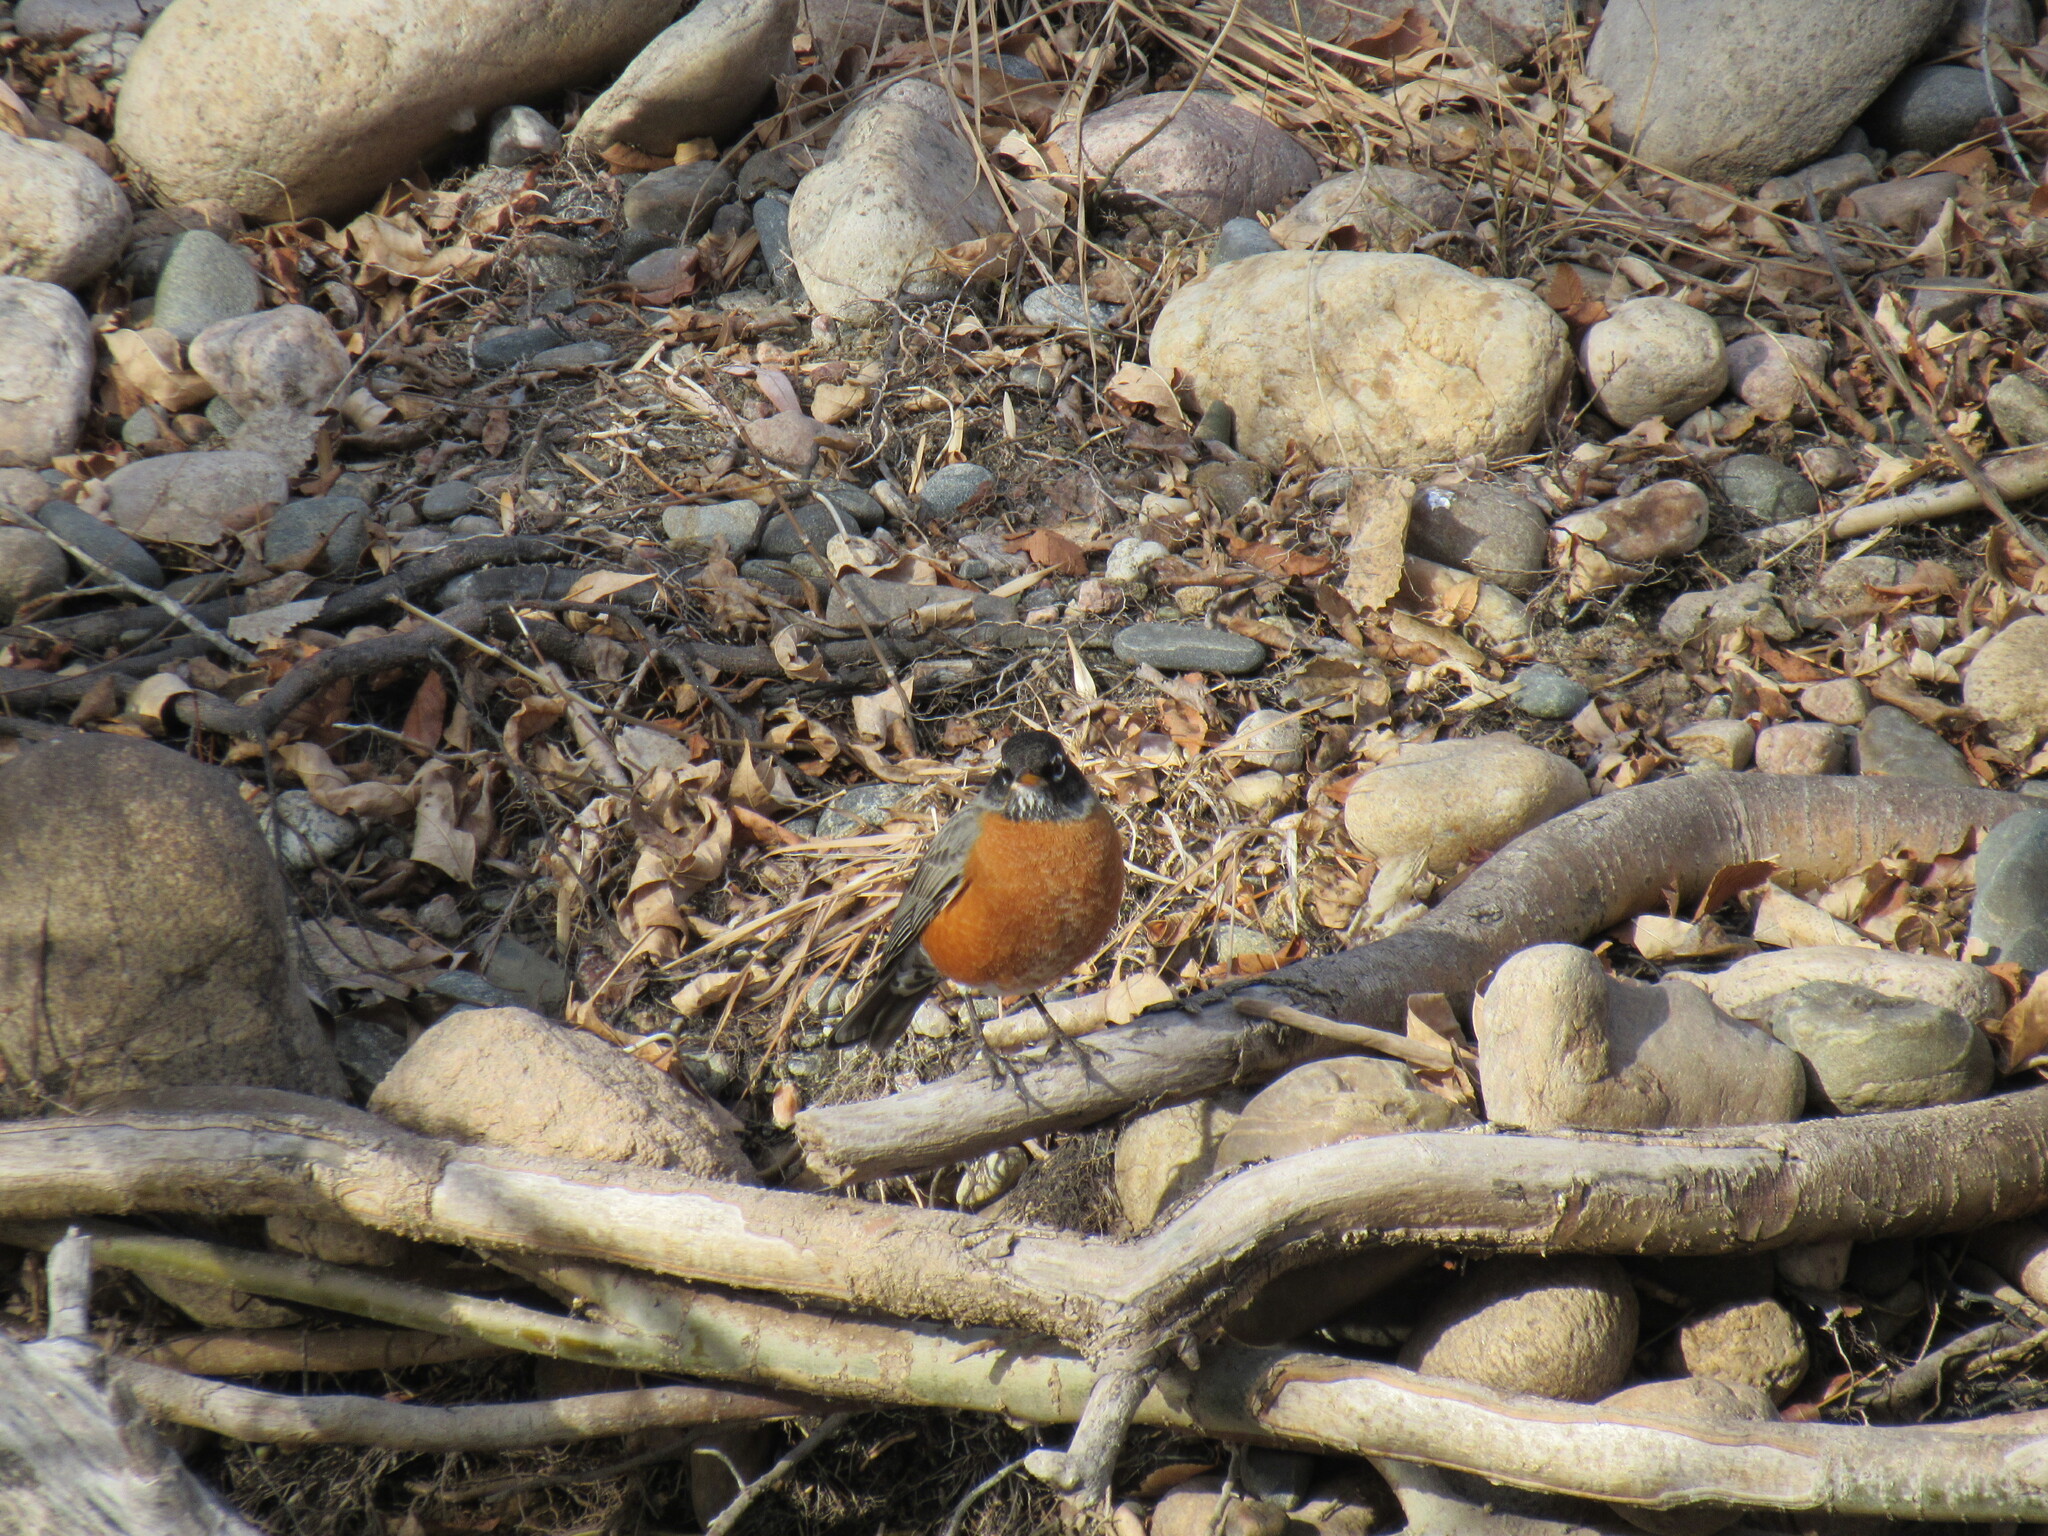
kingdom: Animalia
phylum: Chordata
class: Aves
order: Passeriformes
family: Turdidae
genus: Turdus
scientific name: Turdus migratorius
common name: American robin
